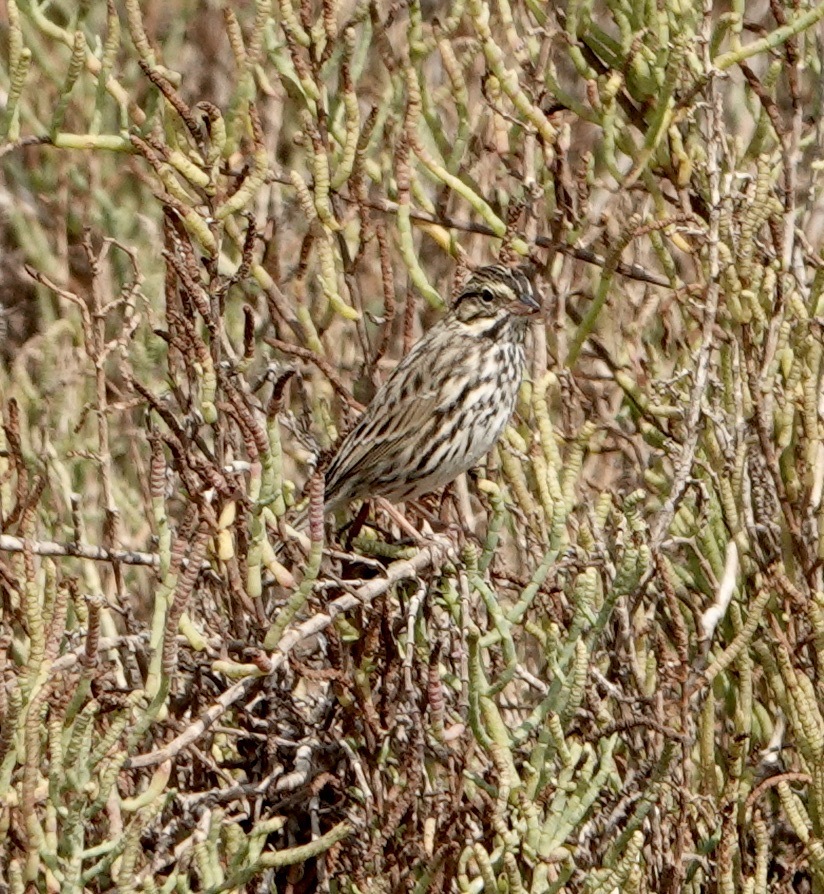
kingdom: Animalia
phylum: Chordata
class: Aves
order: Passeriformes
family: Passerellidae
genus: Passerculus
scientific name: Passerculus sandwichensis
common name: Savannah sparrow
